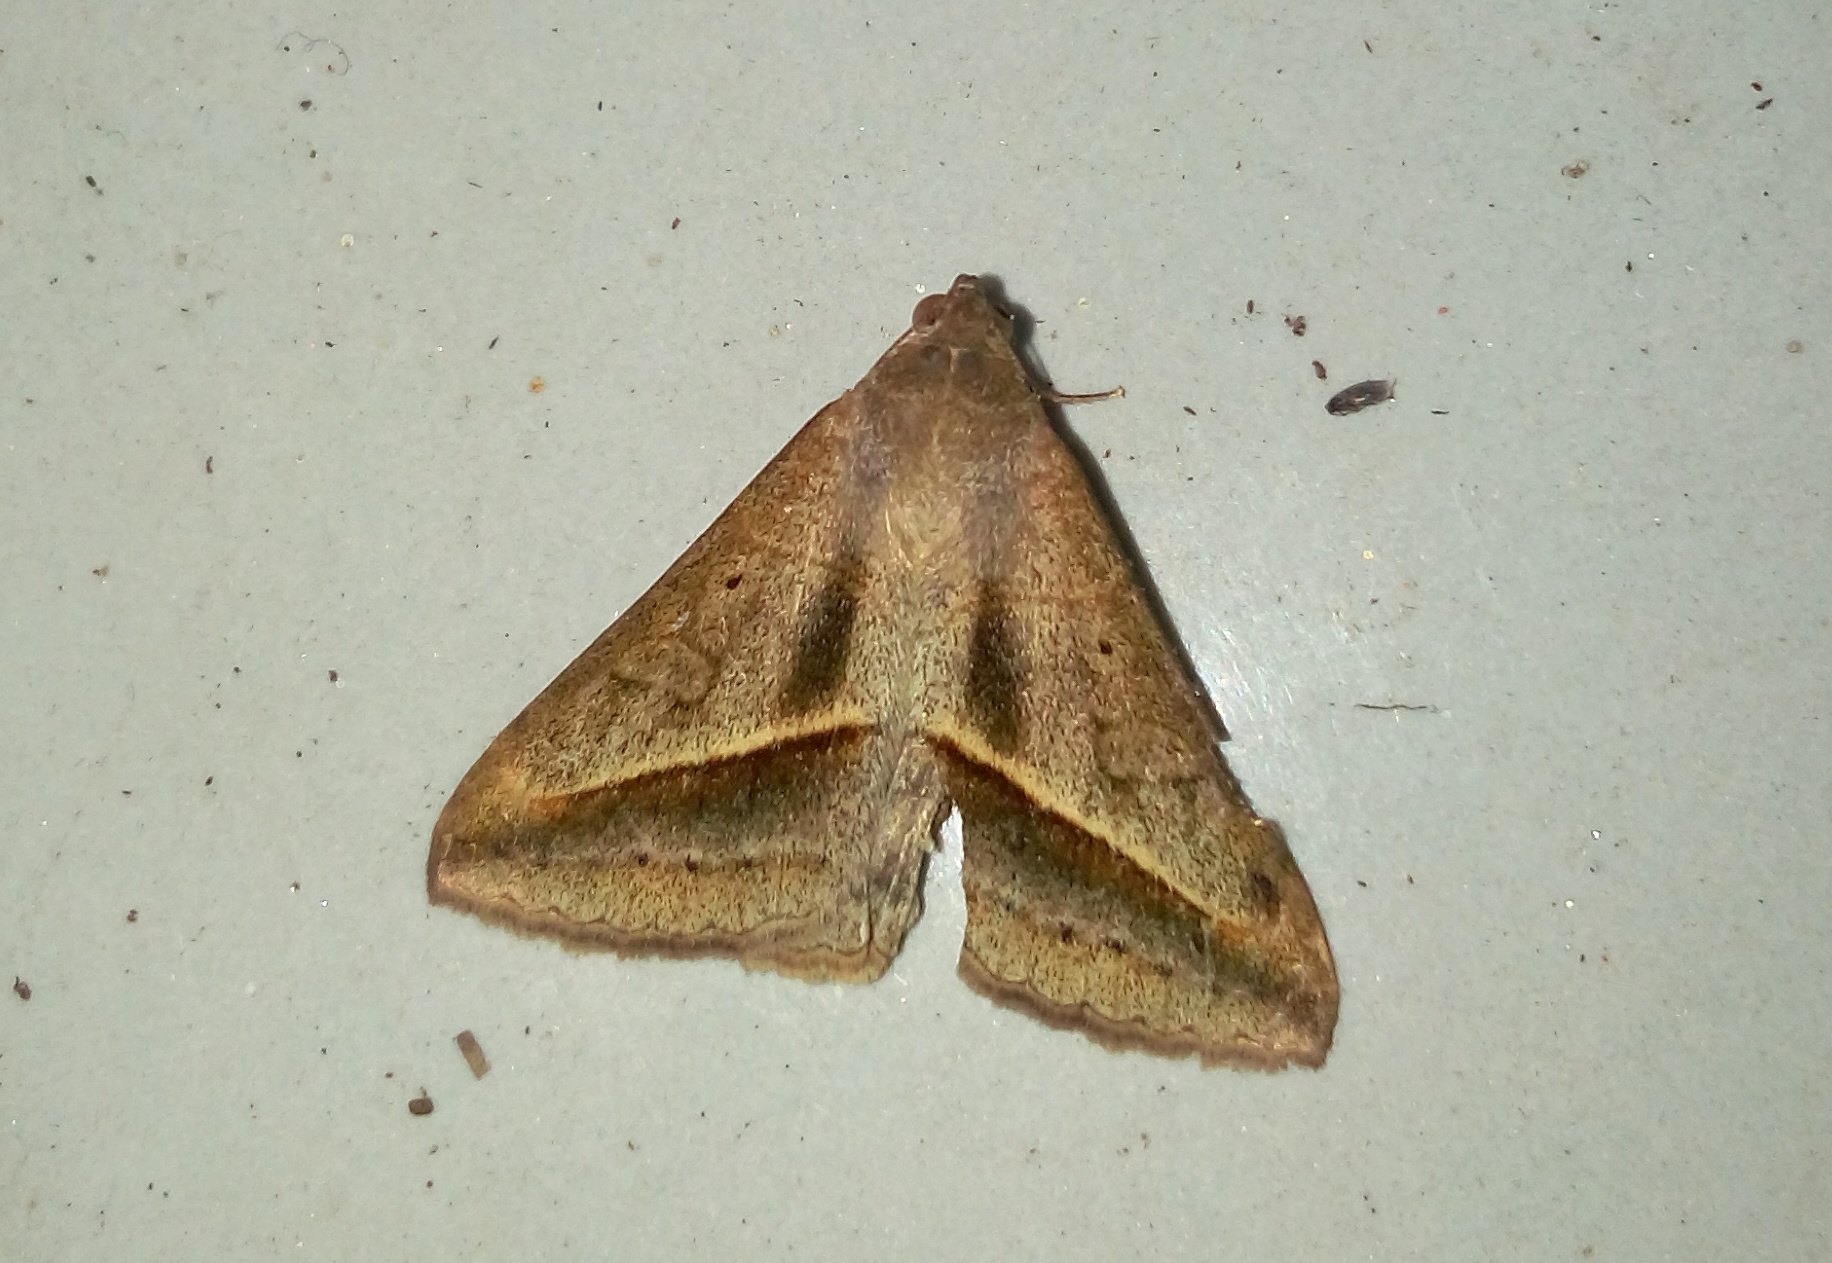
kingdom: Animalia
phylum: Arthropoda
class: Insecta
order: Lepidoptera
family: Erebidae
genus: Mocis
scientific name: Mocis frugalis
